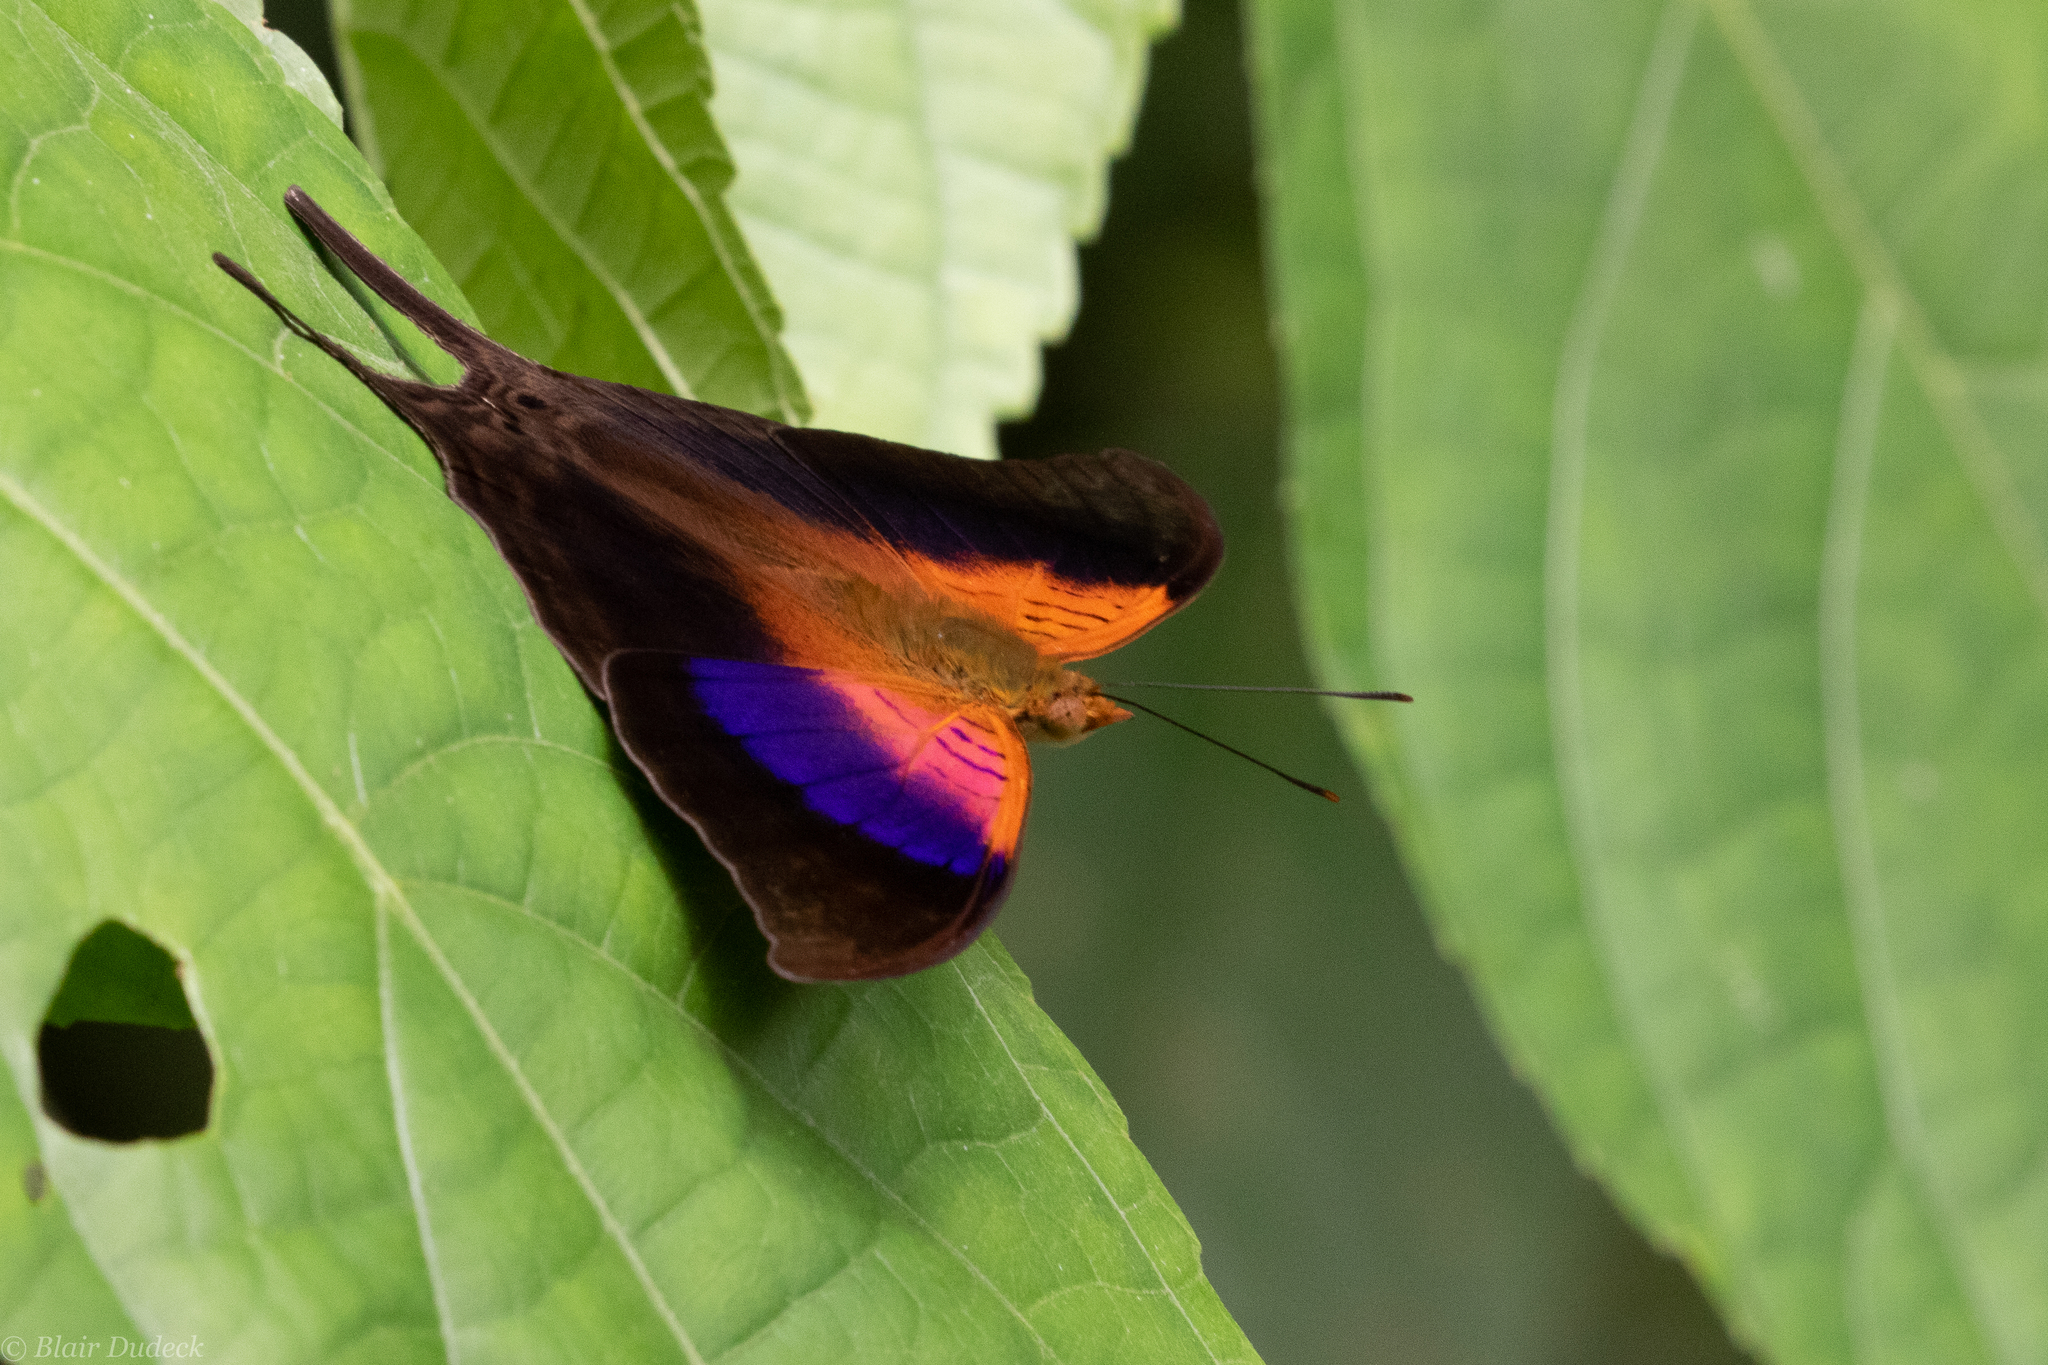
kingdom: Animalia
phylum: Arthropoda
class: Insecta
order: Lepidoptera
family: Nymphalidae
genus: Marpesia
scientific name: Marpesia furcula
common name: Sunset daggerwing
